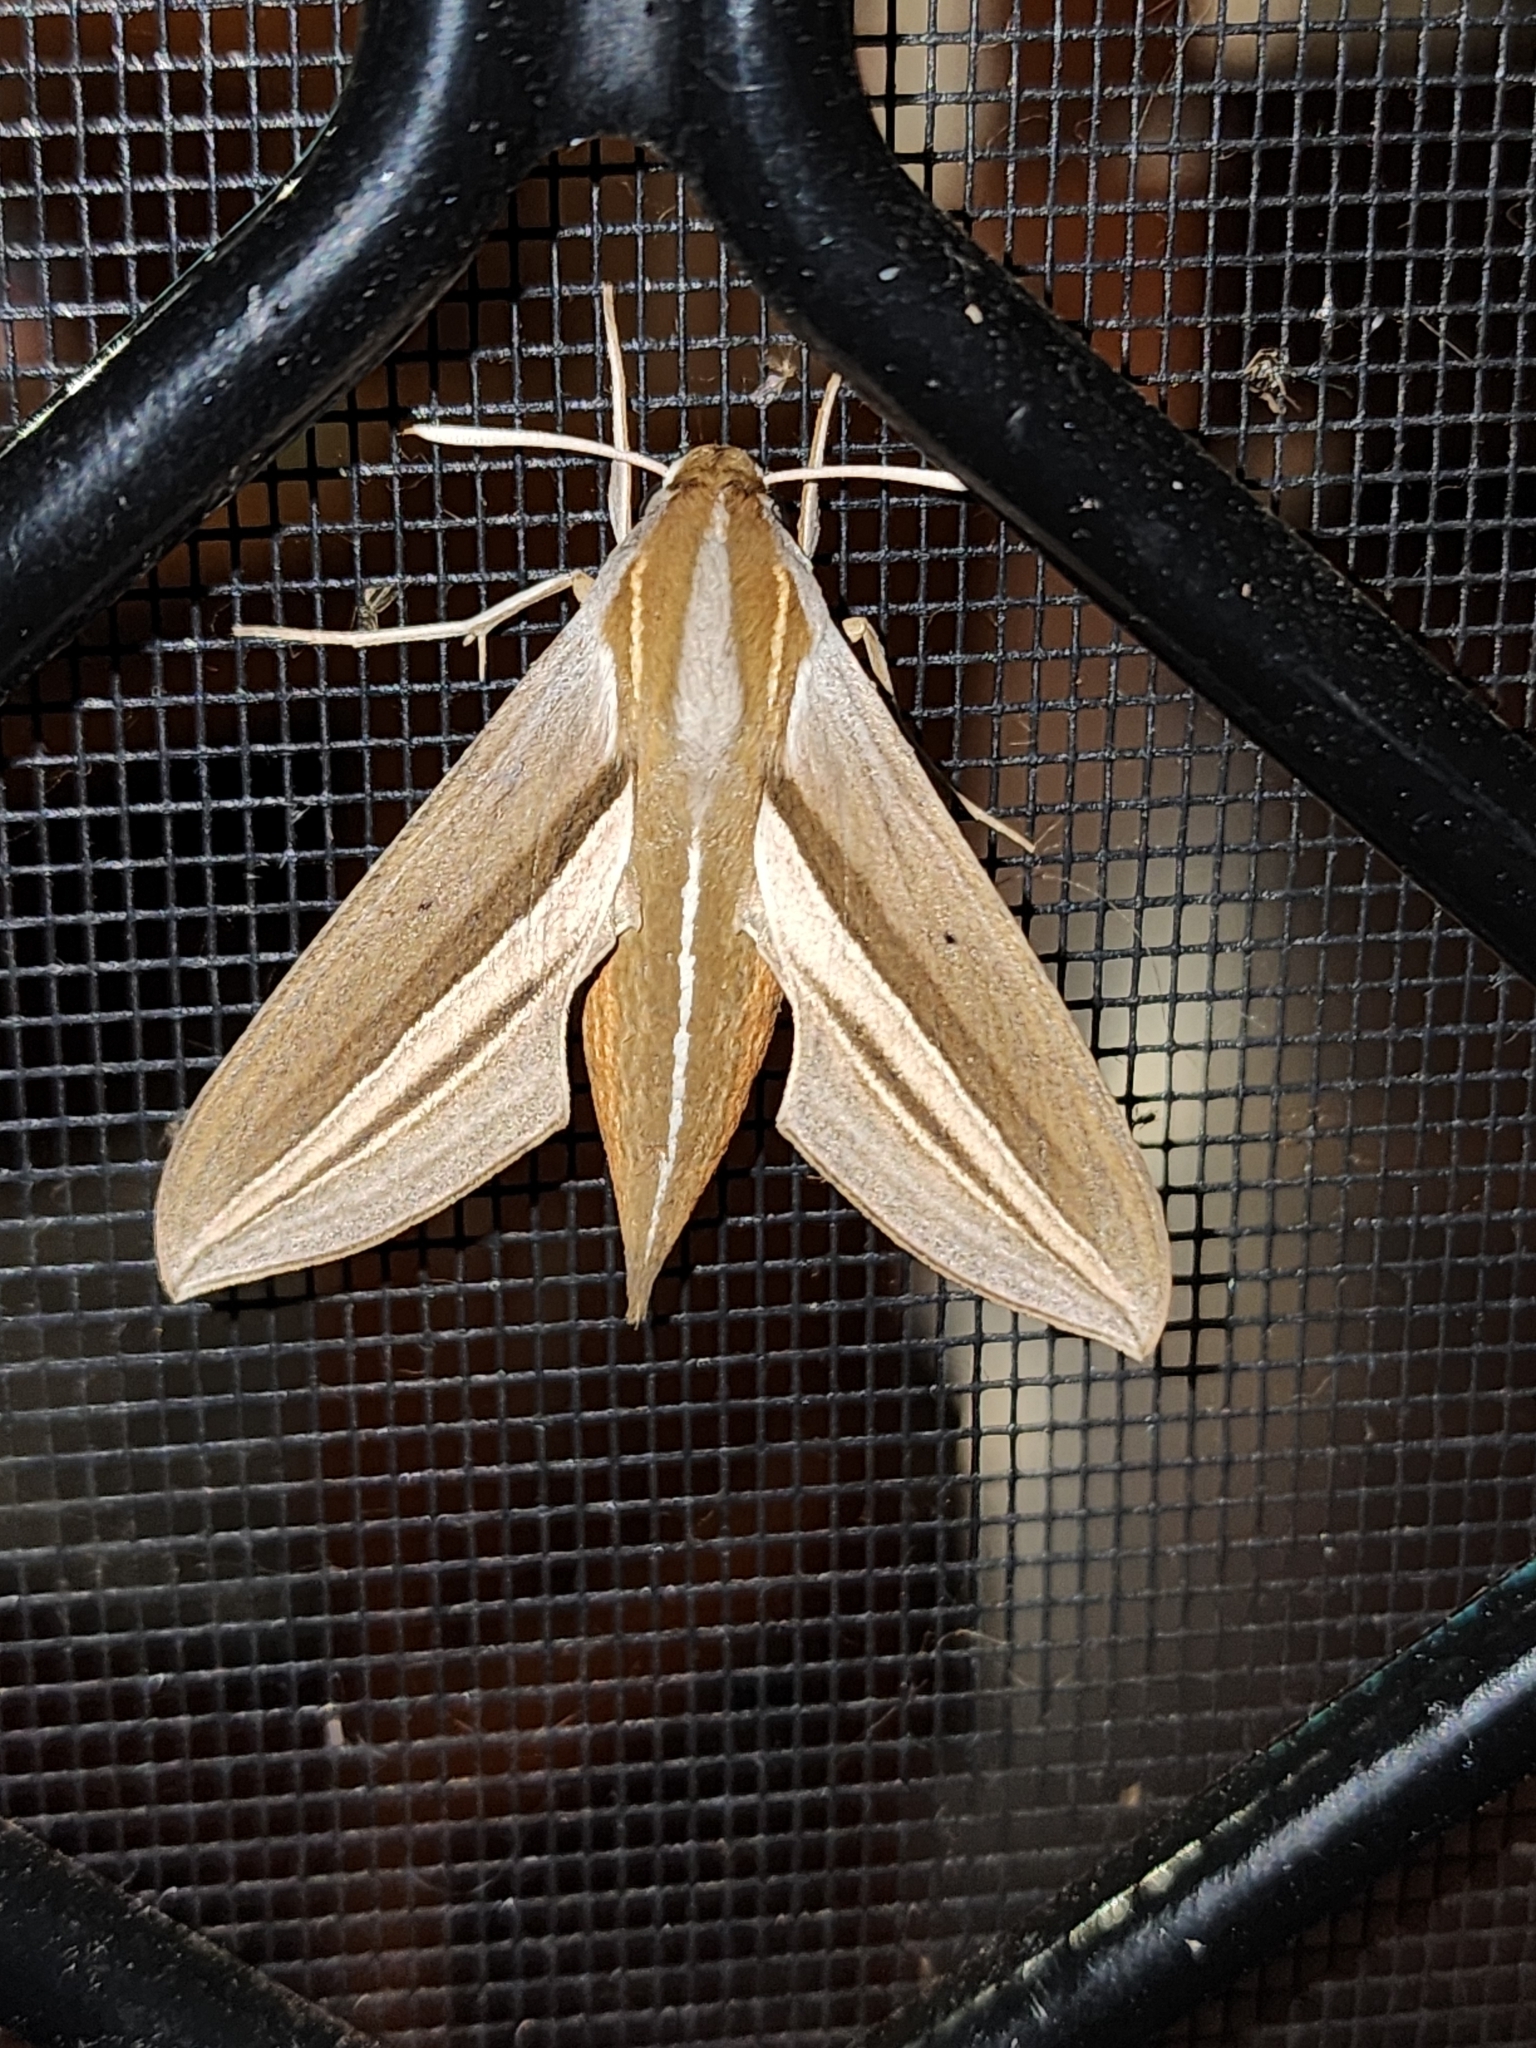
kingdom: Animalia
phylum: Arthropoda
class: Insecta
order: Lepidoptera
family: Sphingidae
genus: Theretra
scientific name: Theretra oldenlandiae
